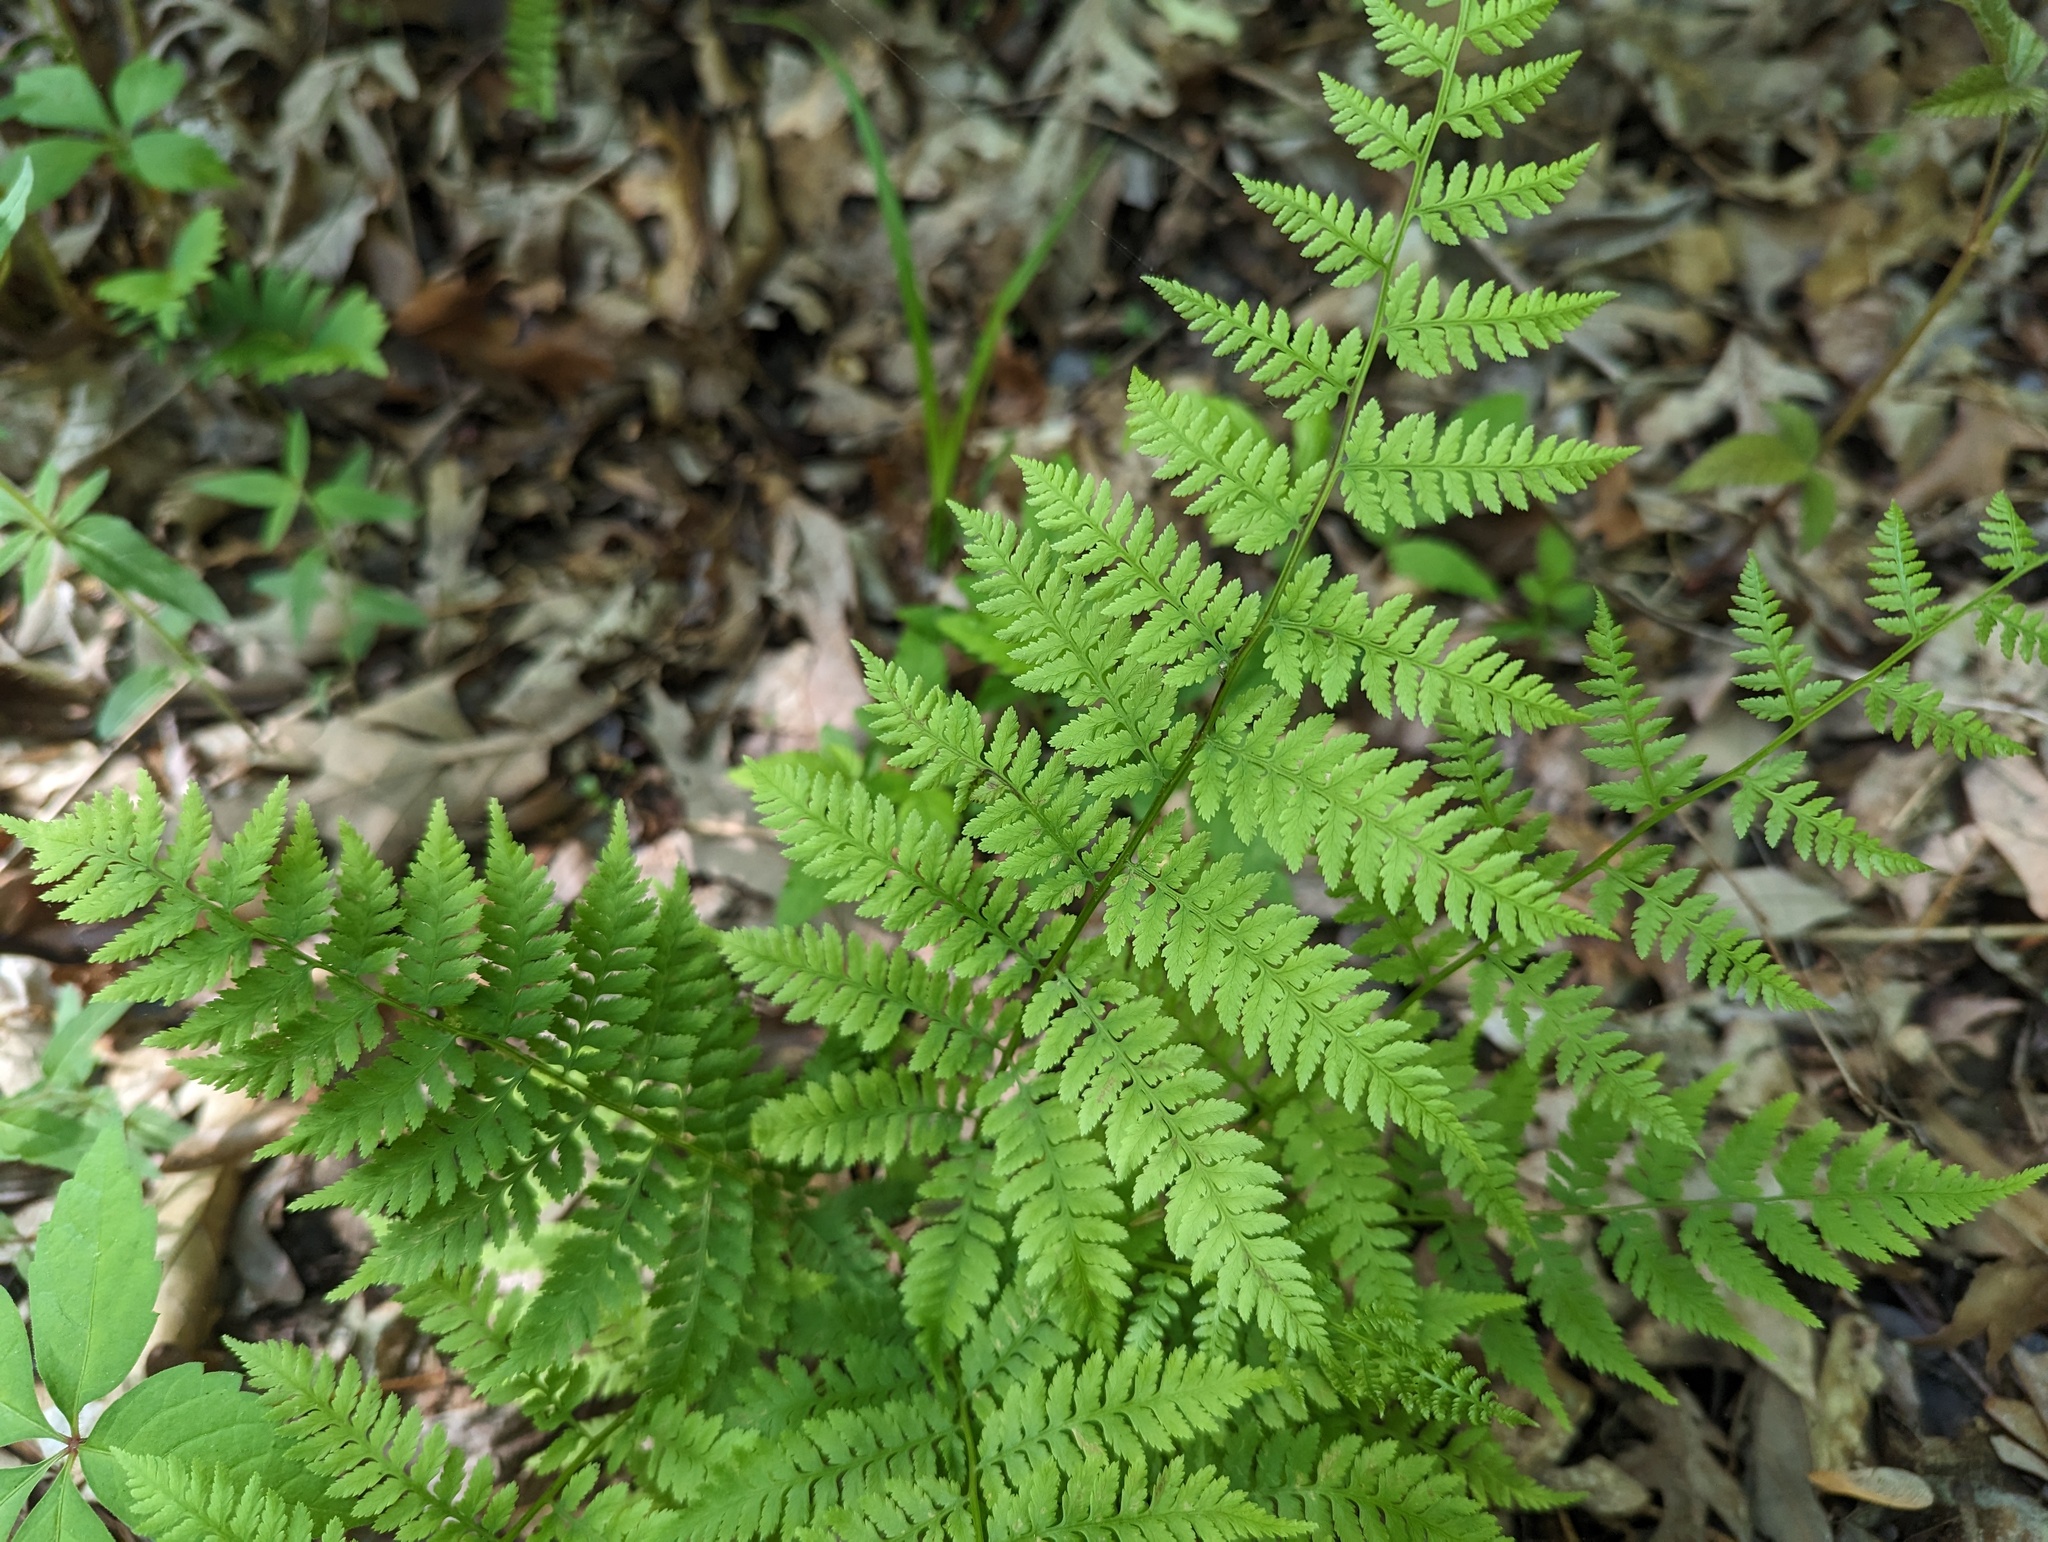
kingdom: Plantae
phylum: Tracheophyta
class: Polypodiopsida
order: Polypodiales
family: Athyriaceae
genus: Athyrium
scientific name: Athyrium asplenioides
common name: Southern lady fern
